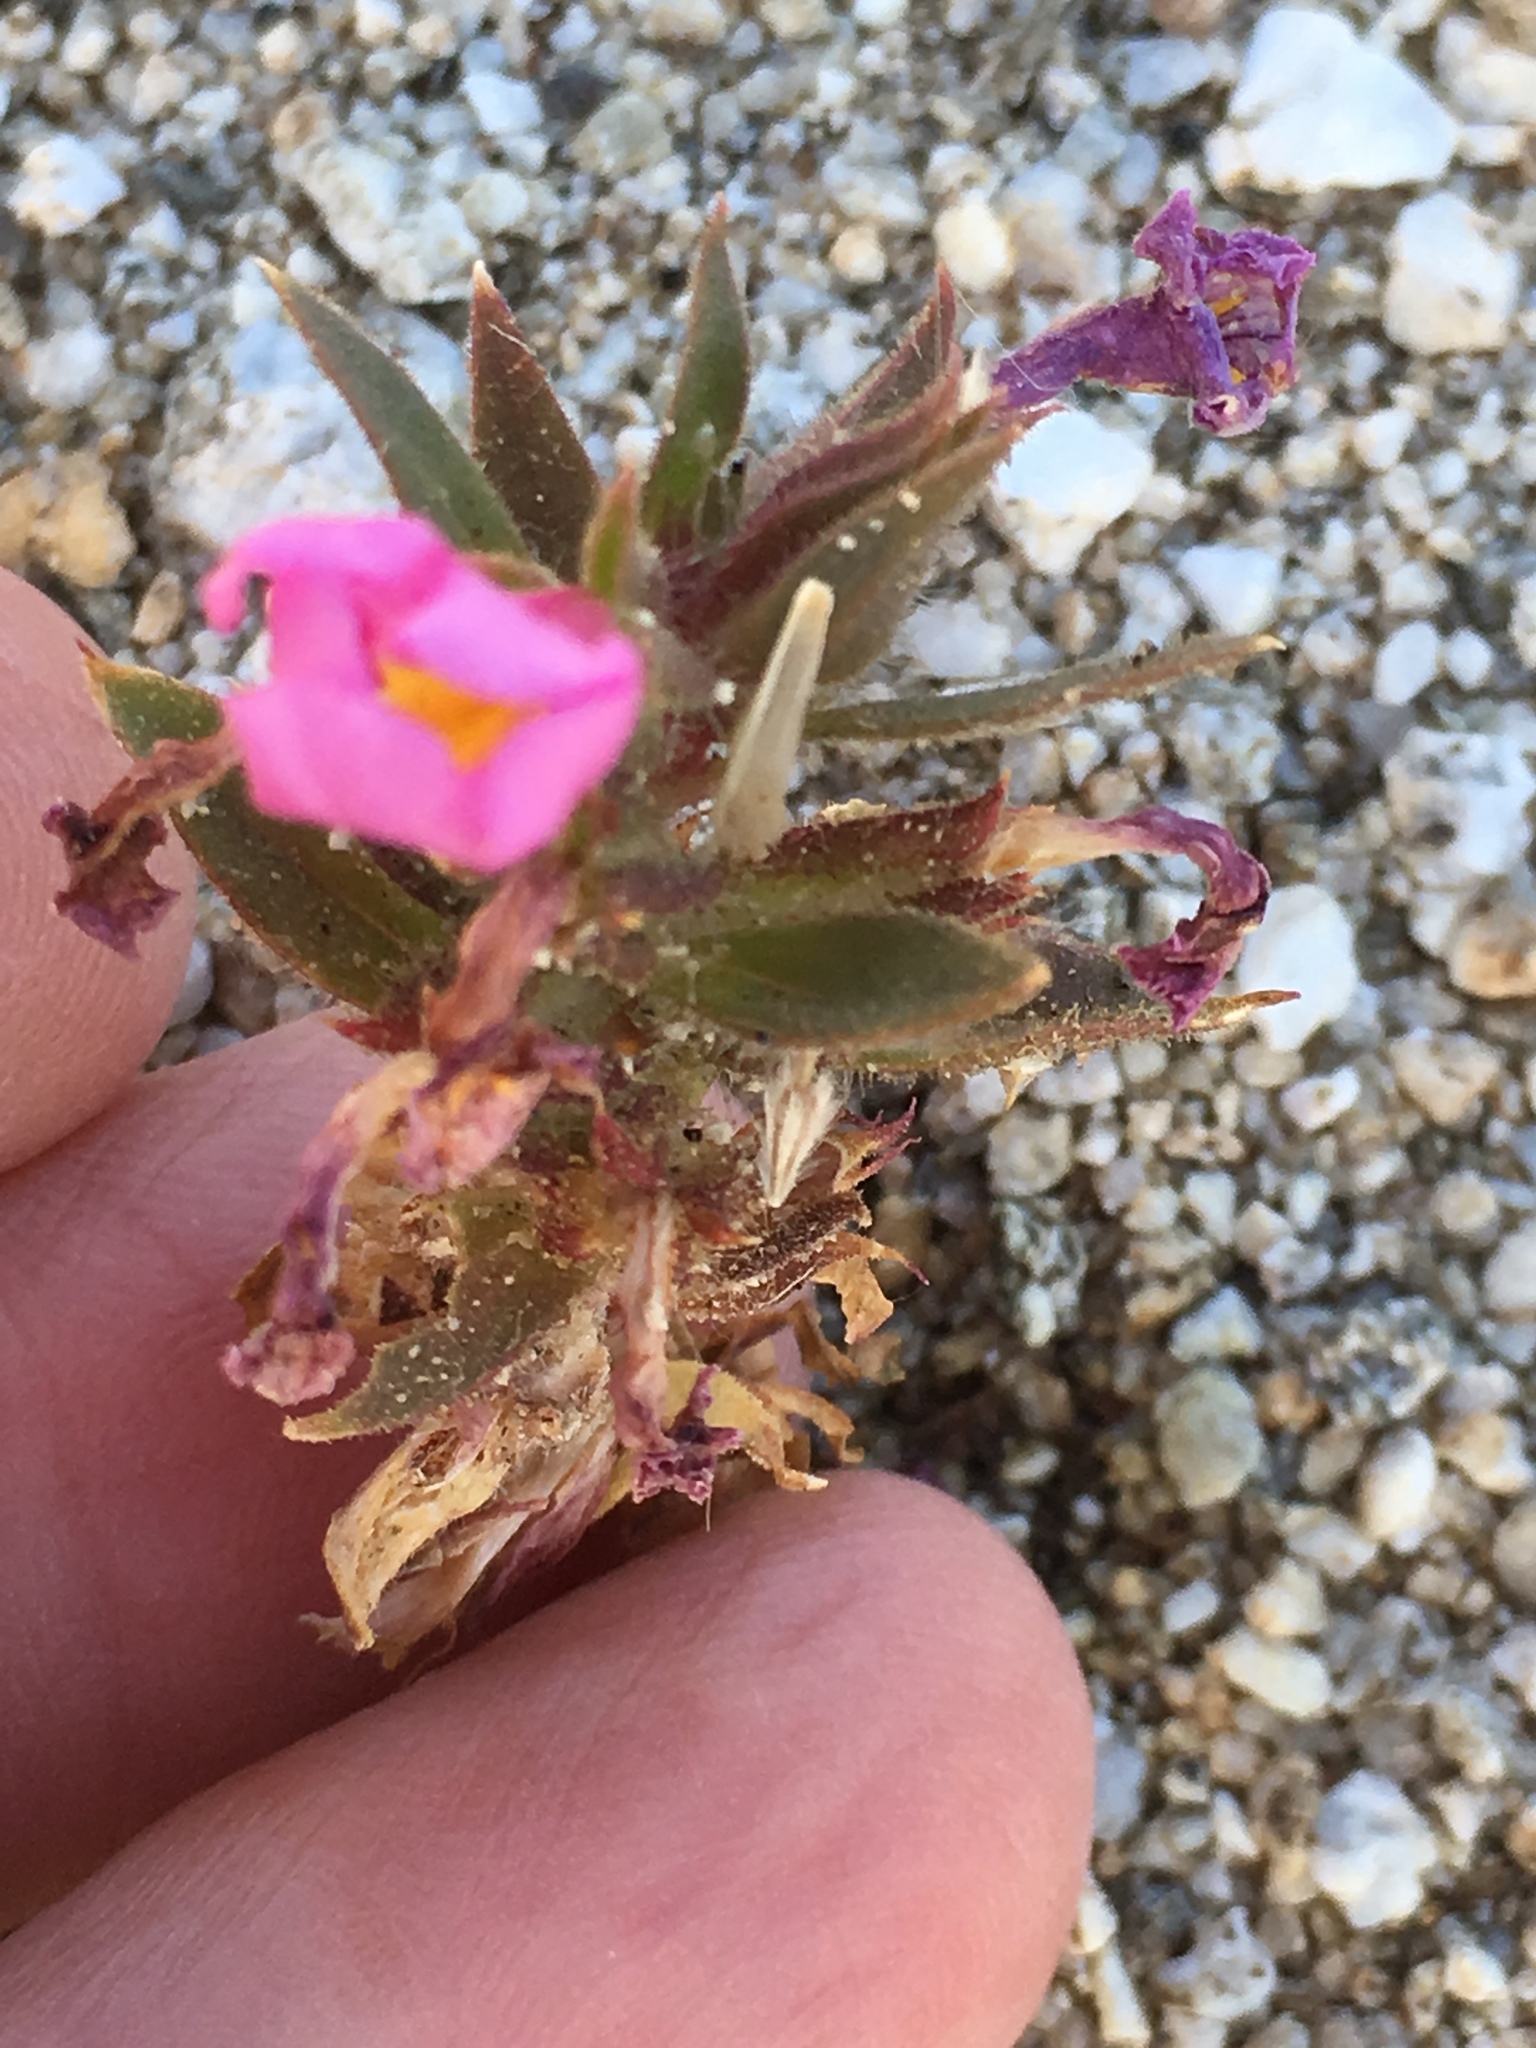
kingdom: Plantae
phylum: Tracheophyta
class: Magnoliopsida
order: Lamiales
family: Phrymaceae
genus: Diplacus
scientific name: Diplacus bigelovii
